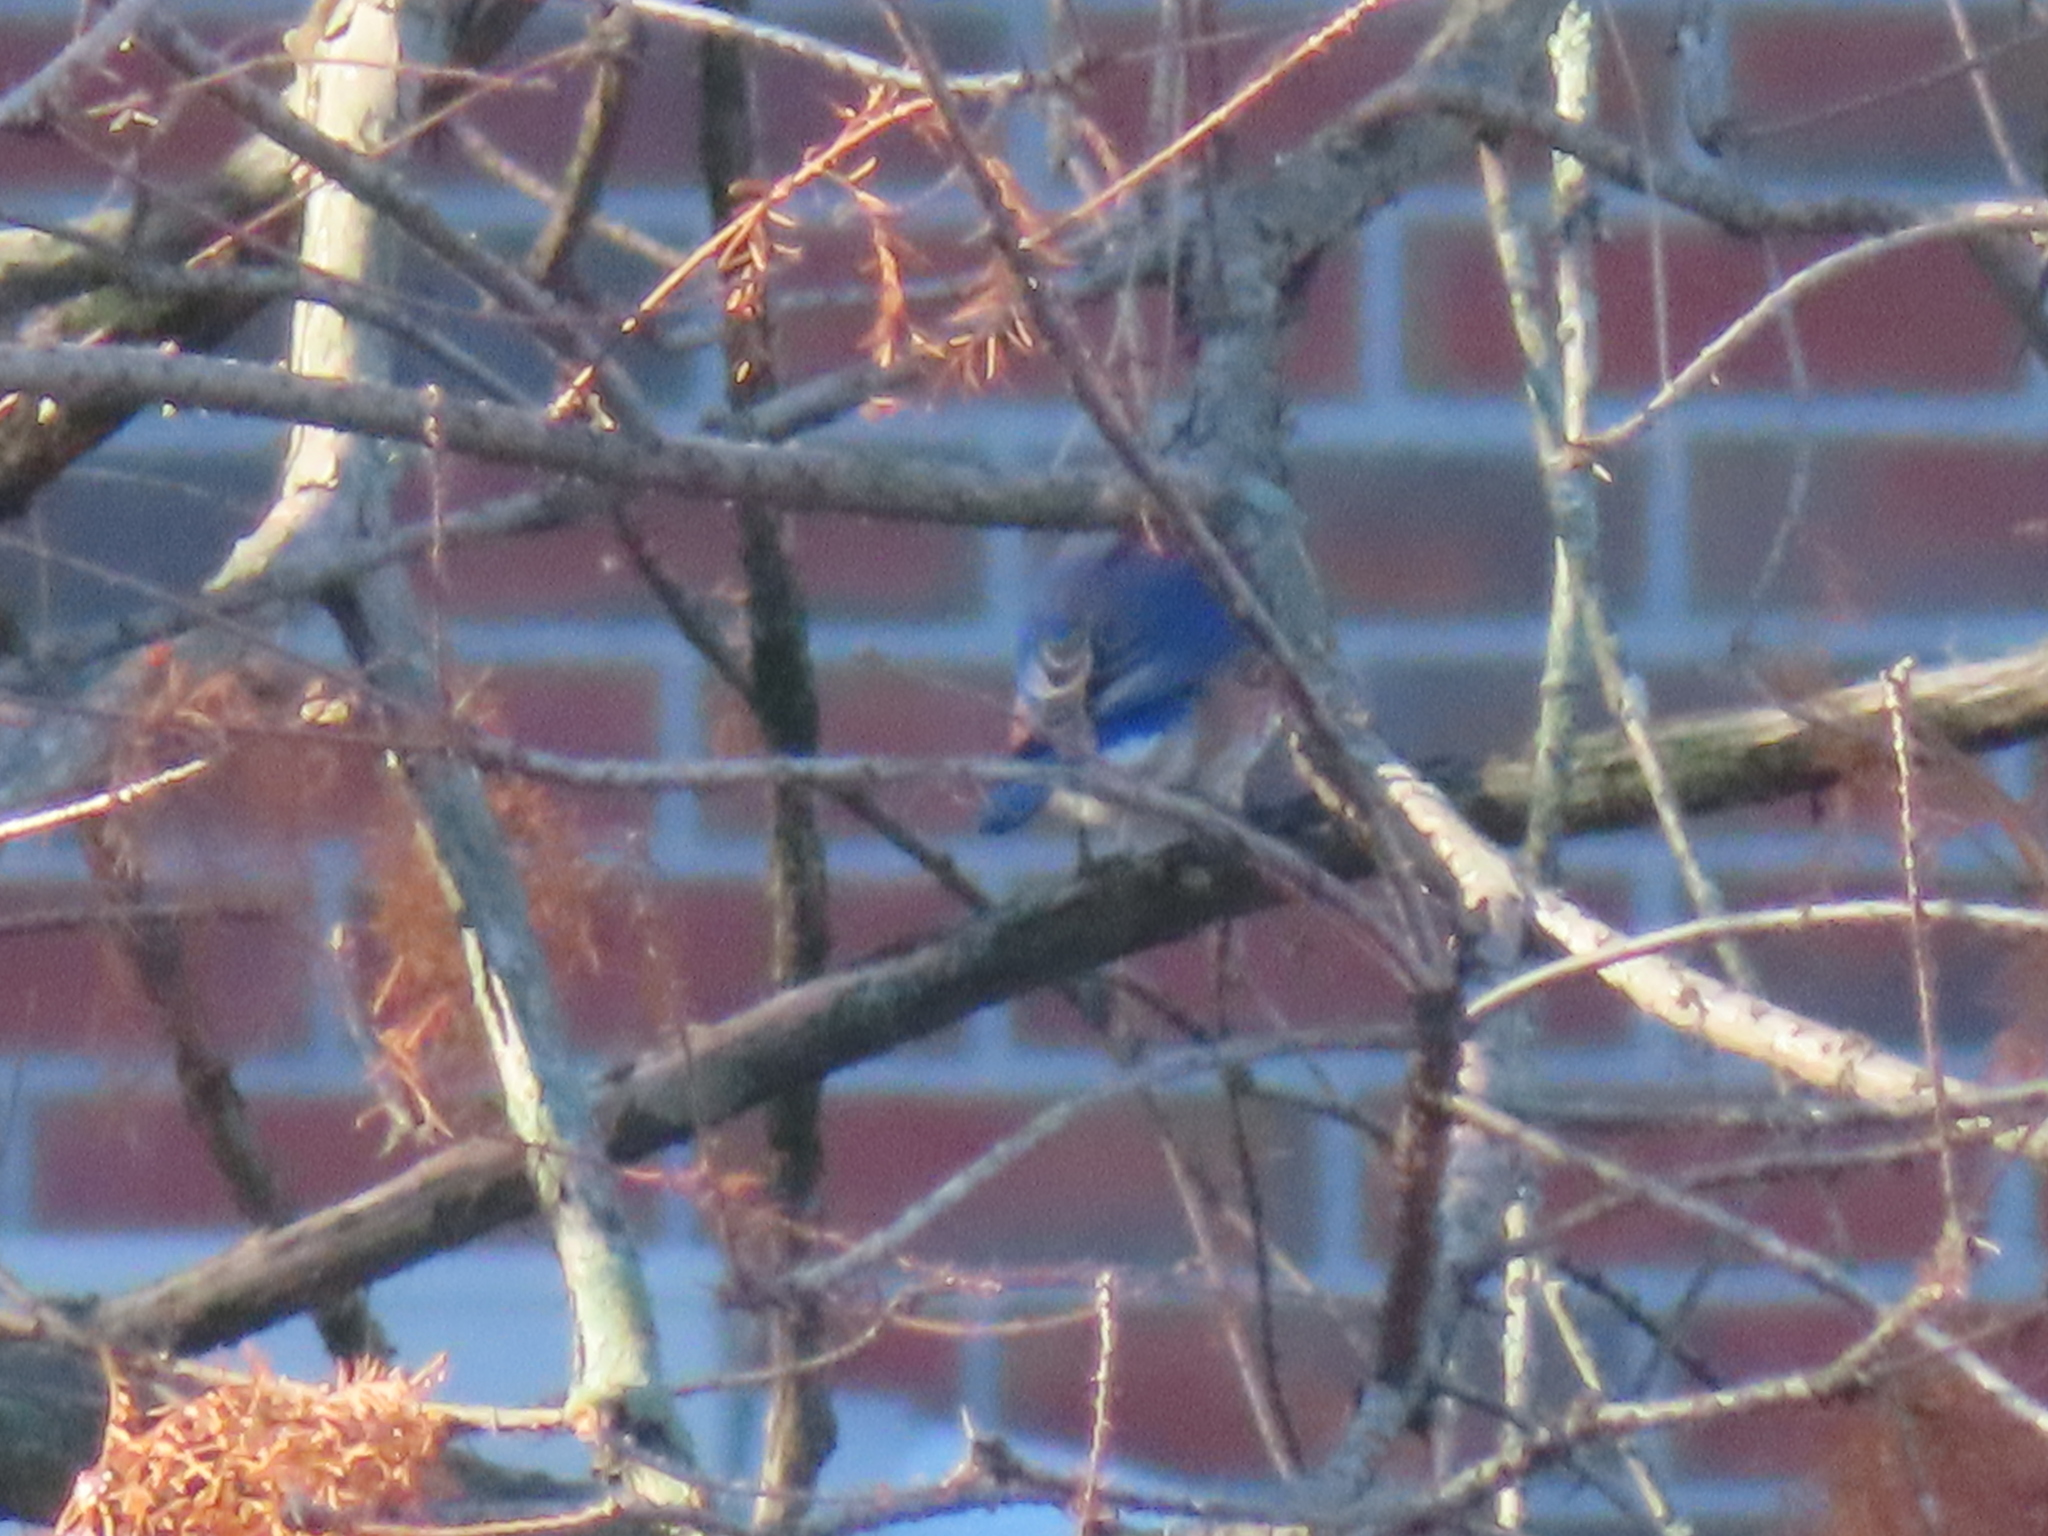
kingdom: Animalia
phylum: Chordata
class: Aves
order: Passeriformes
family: Turdidae
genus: Sialia
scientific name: Sialia sialis
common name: Eastern bluebird
